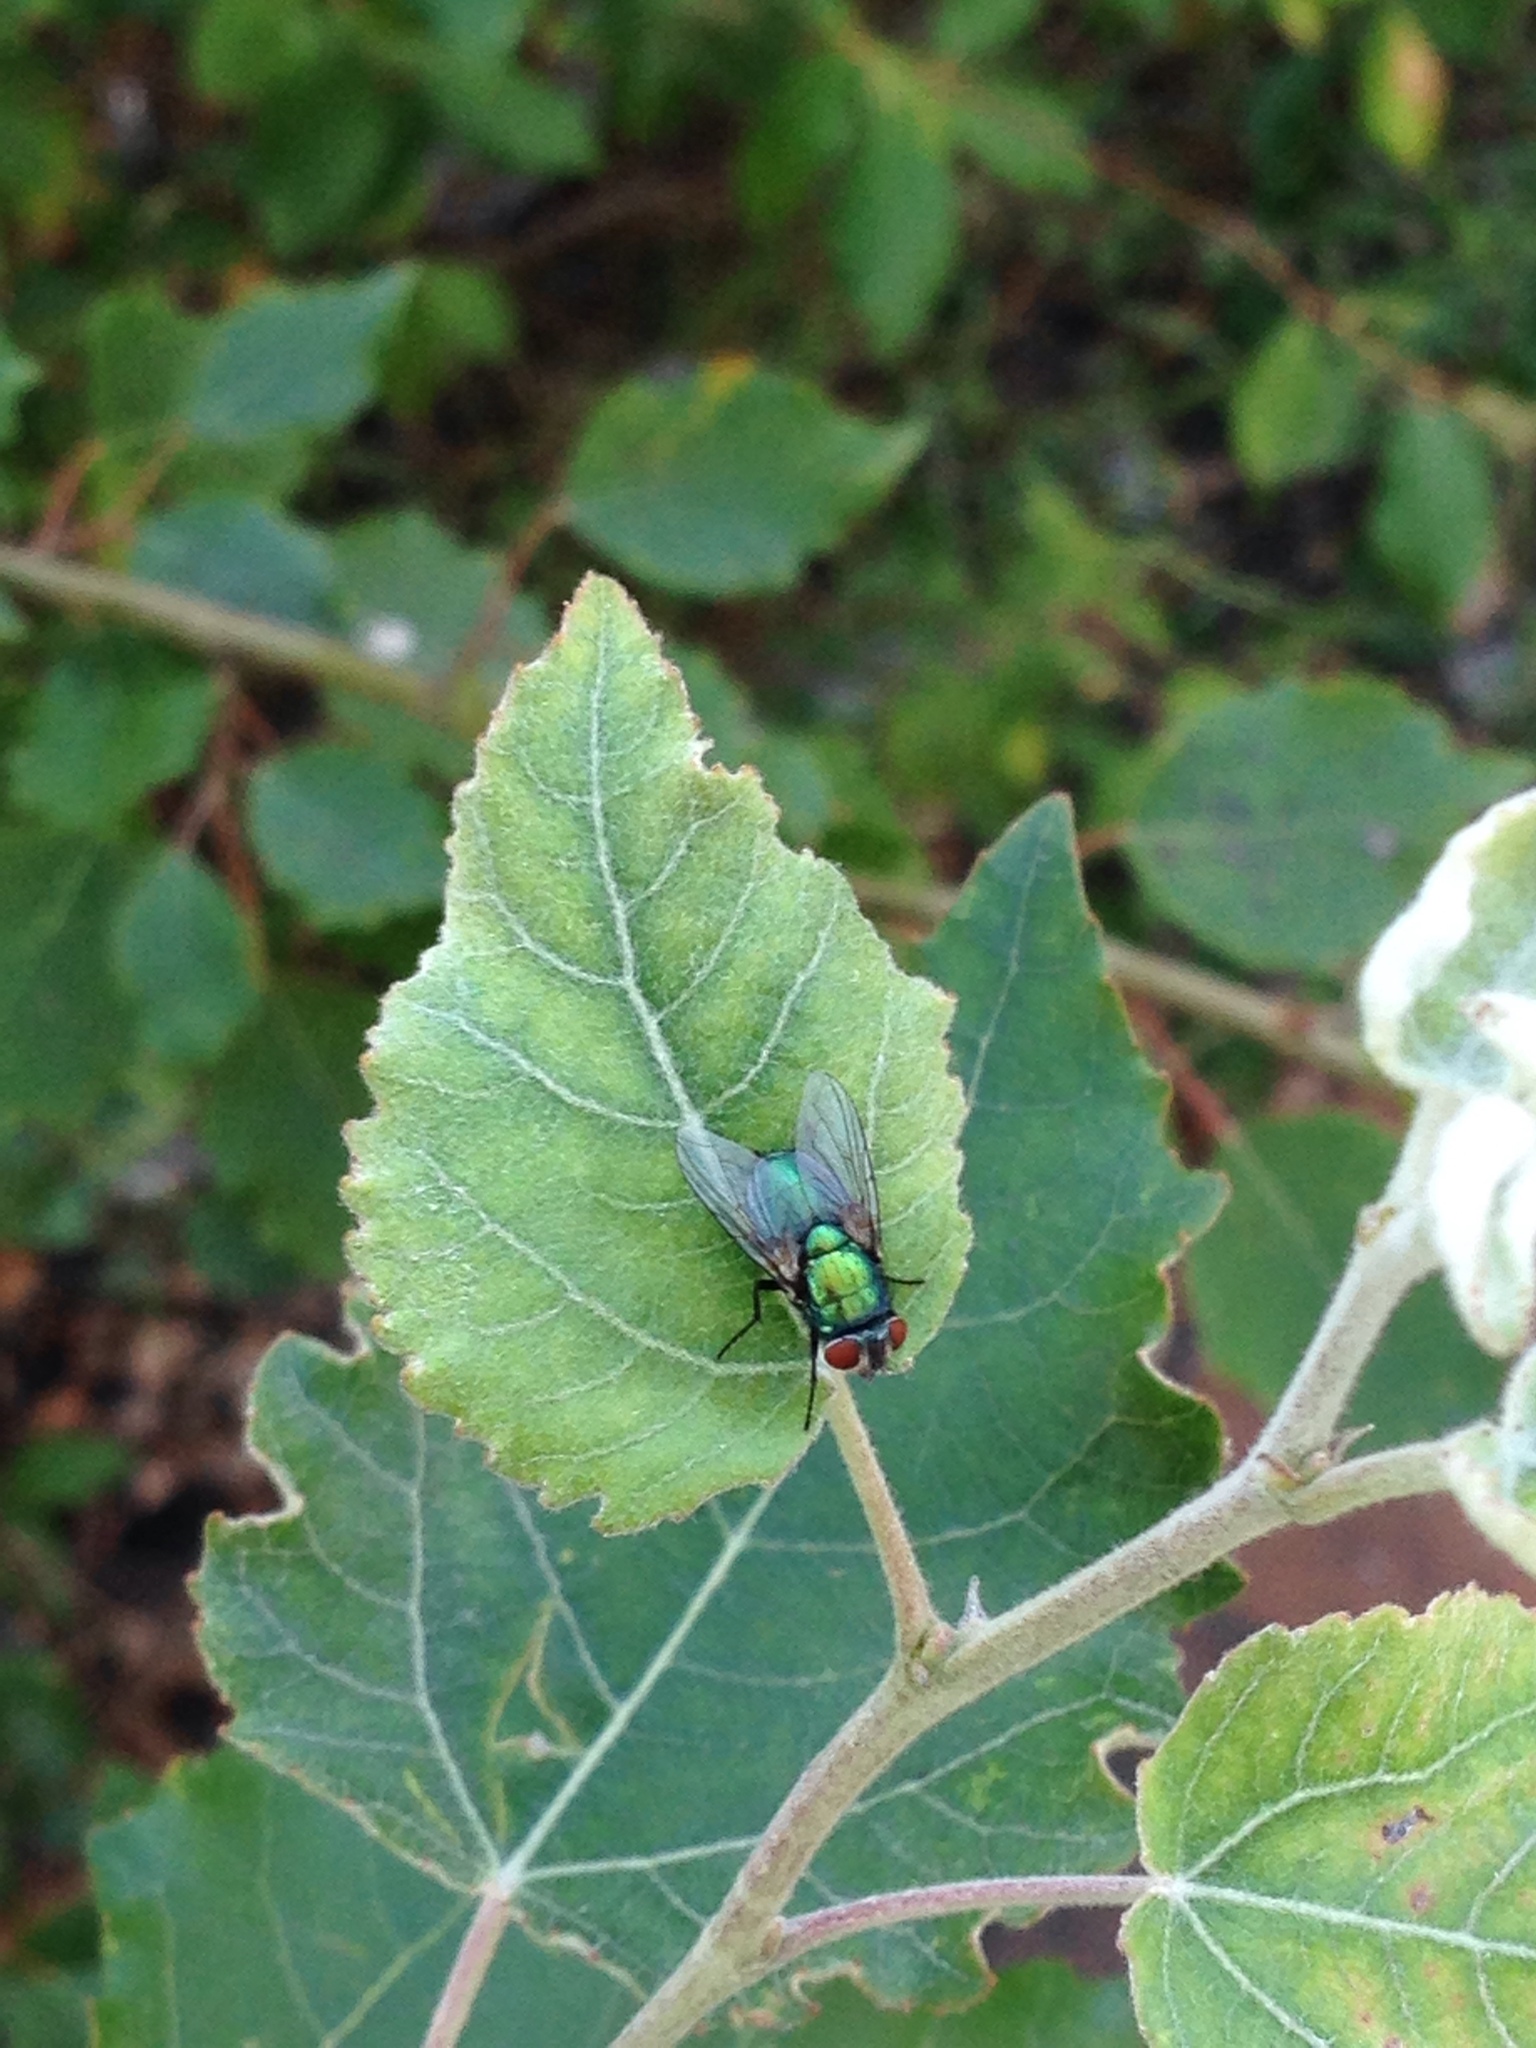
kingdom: Animalia
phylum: Arthropoda
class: Insecta
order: Diptera
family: Calliphoridae
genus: Lucilia
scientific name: Lucilia
